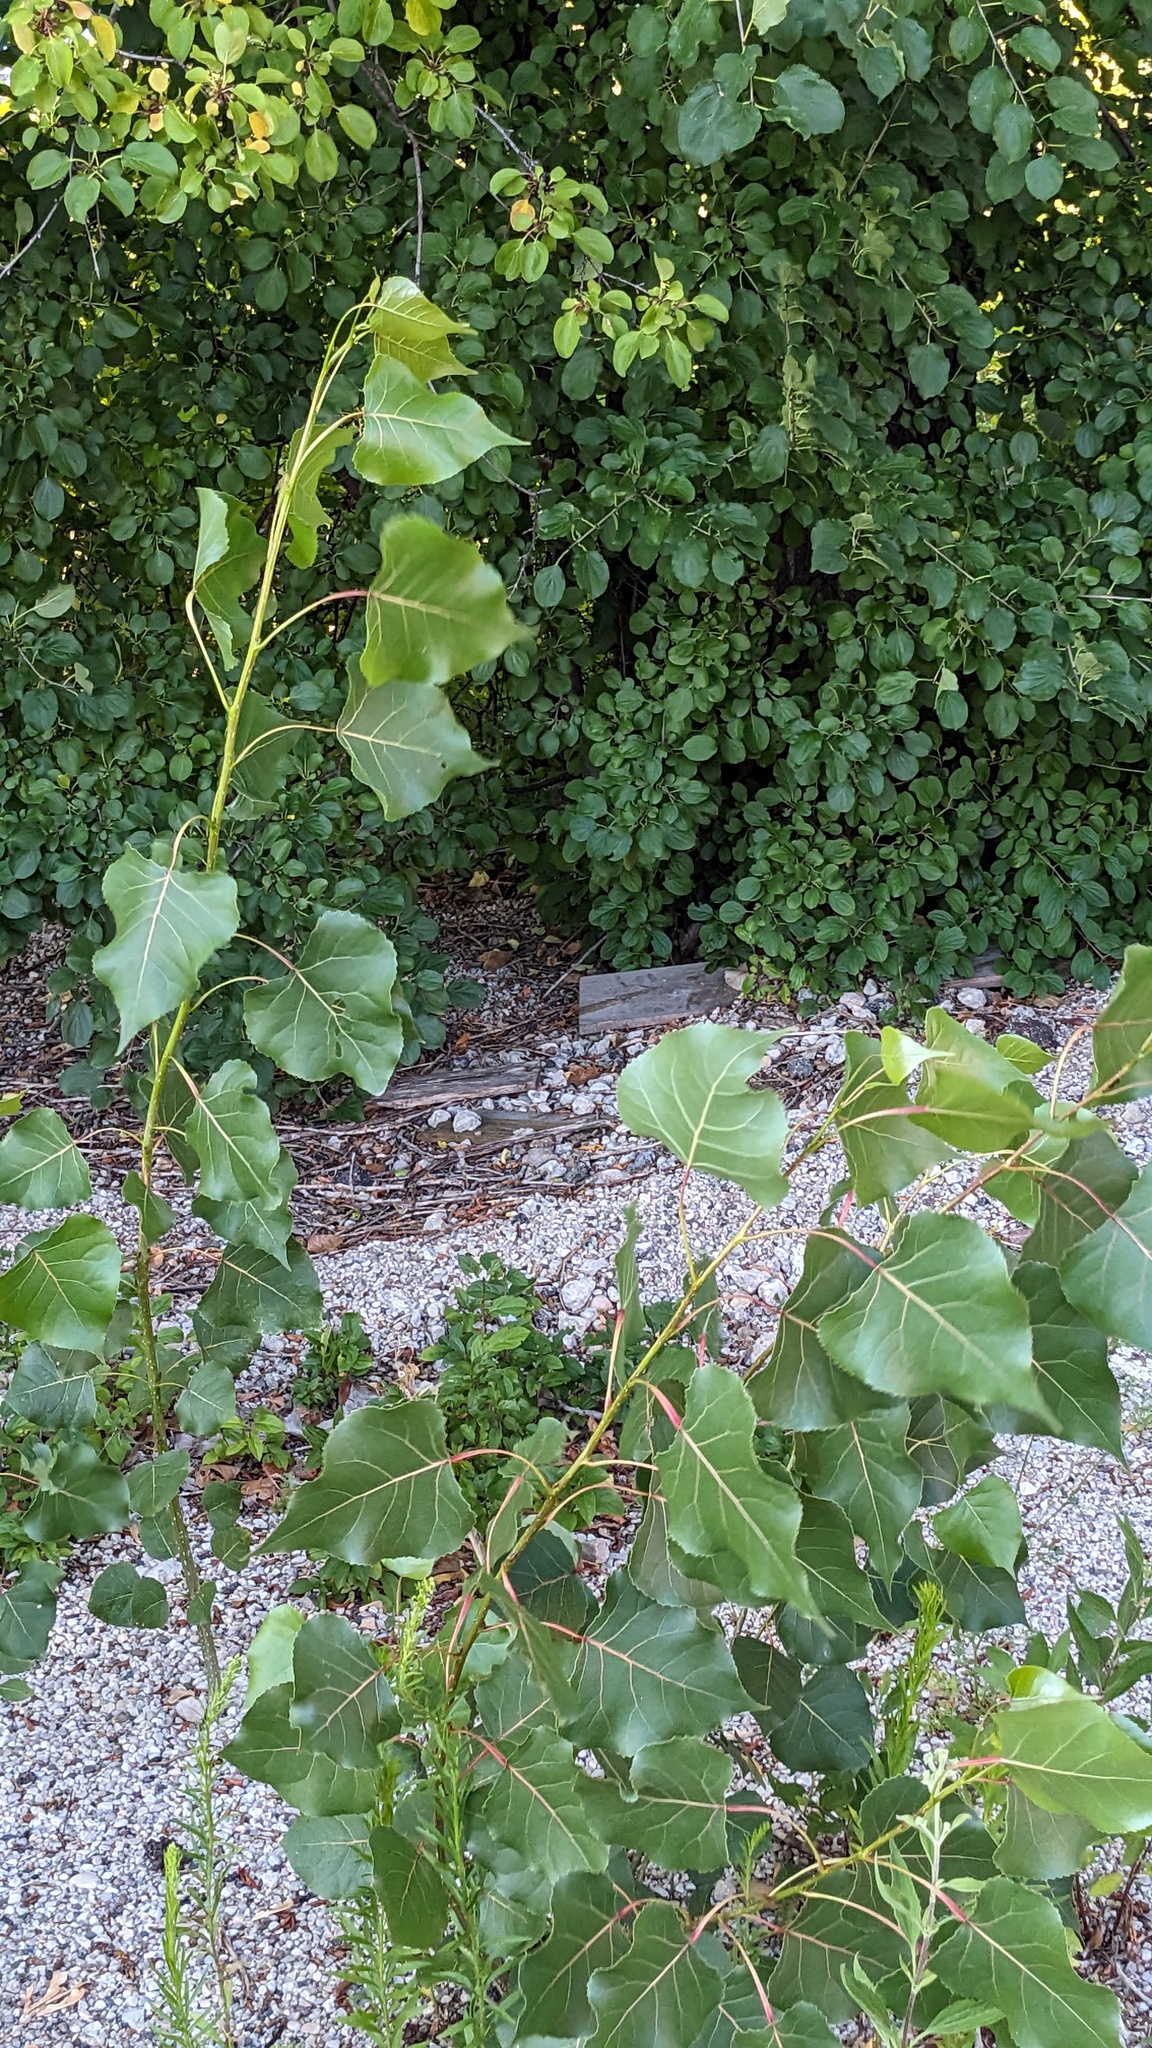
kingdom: Plantae
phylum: Tracheophyta
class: Magnoliopsida
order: Malpighiales
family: Salicaceae
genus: Populus
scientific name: Populus deltoides
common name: Eastern cottonwood
